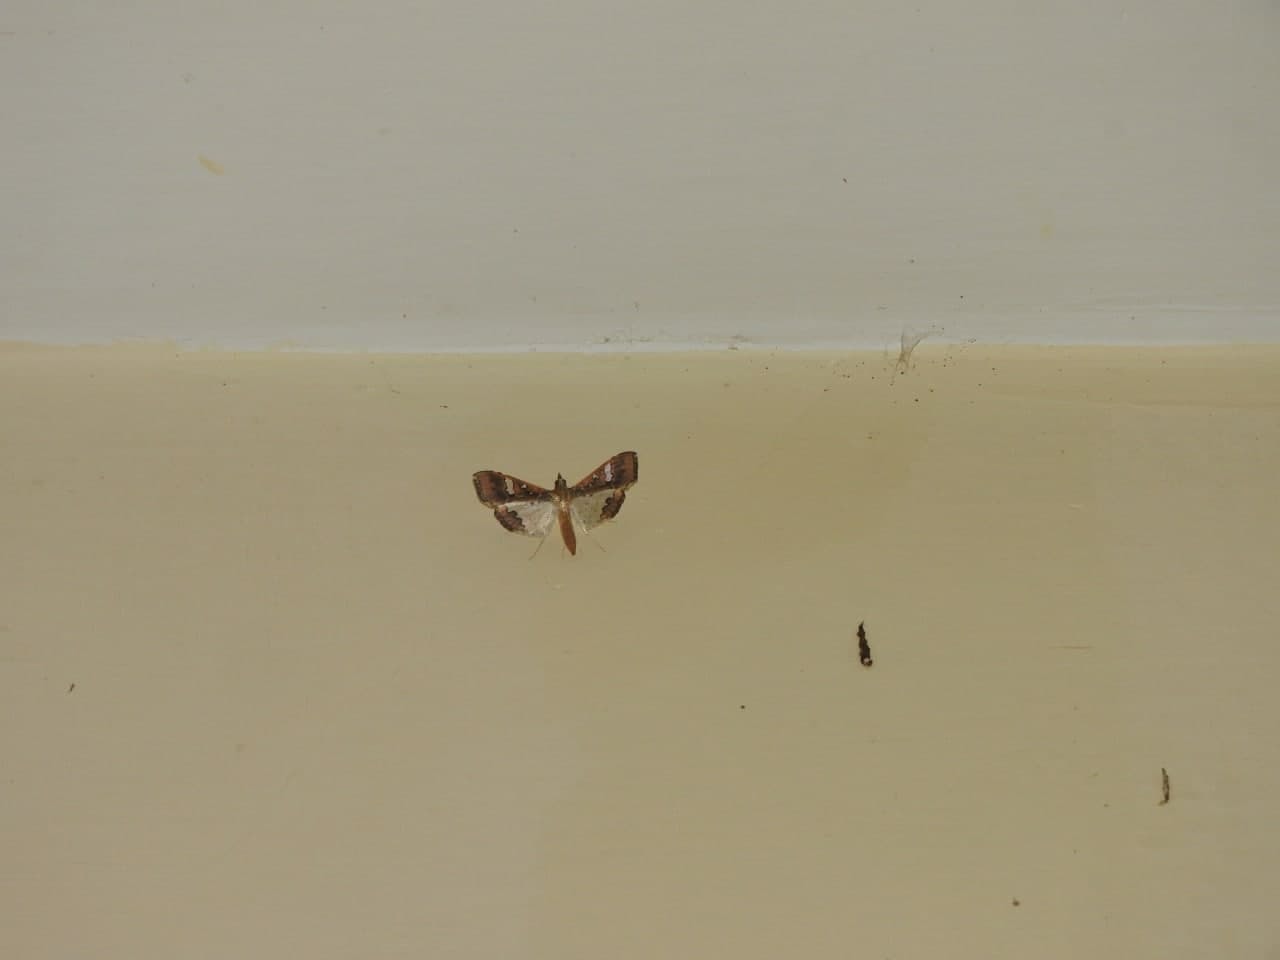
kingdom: Animalia
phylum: Arthropoda
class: Insecta
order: Lepidoptera
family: Crambidae
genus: Maruca
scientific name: Maruca vitrata
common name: Maruca pod borer
